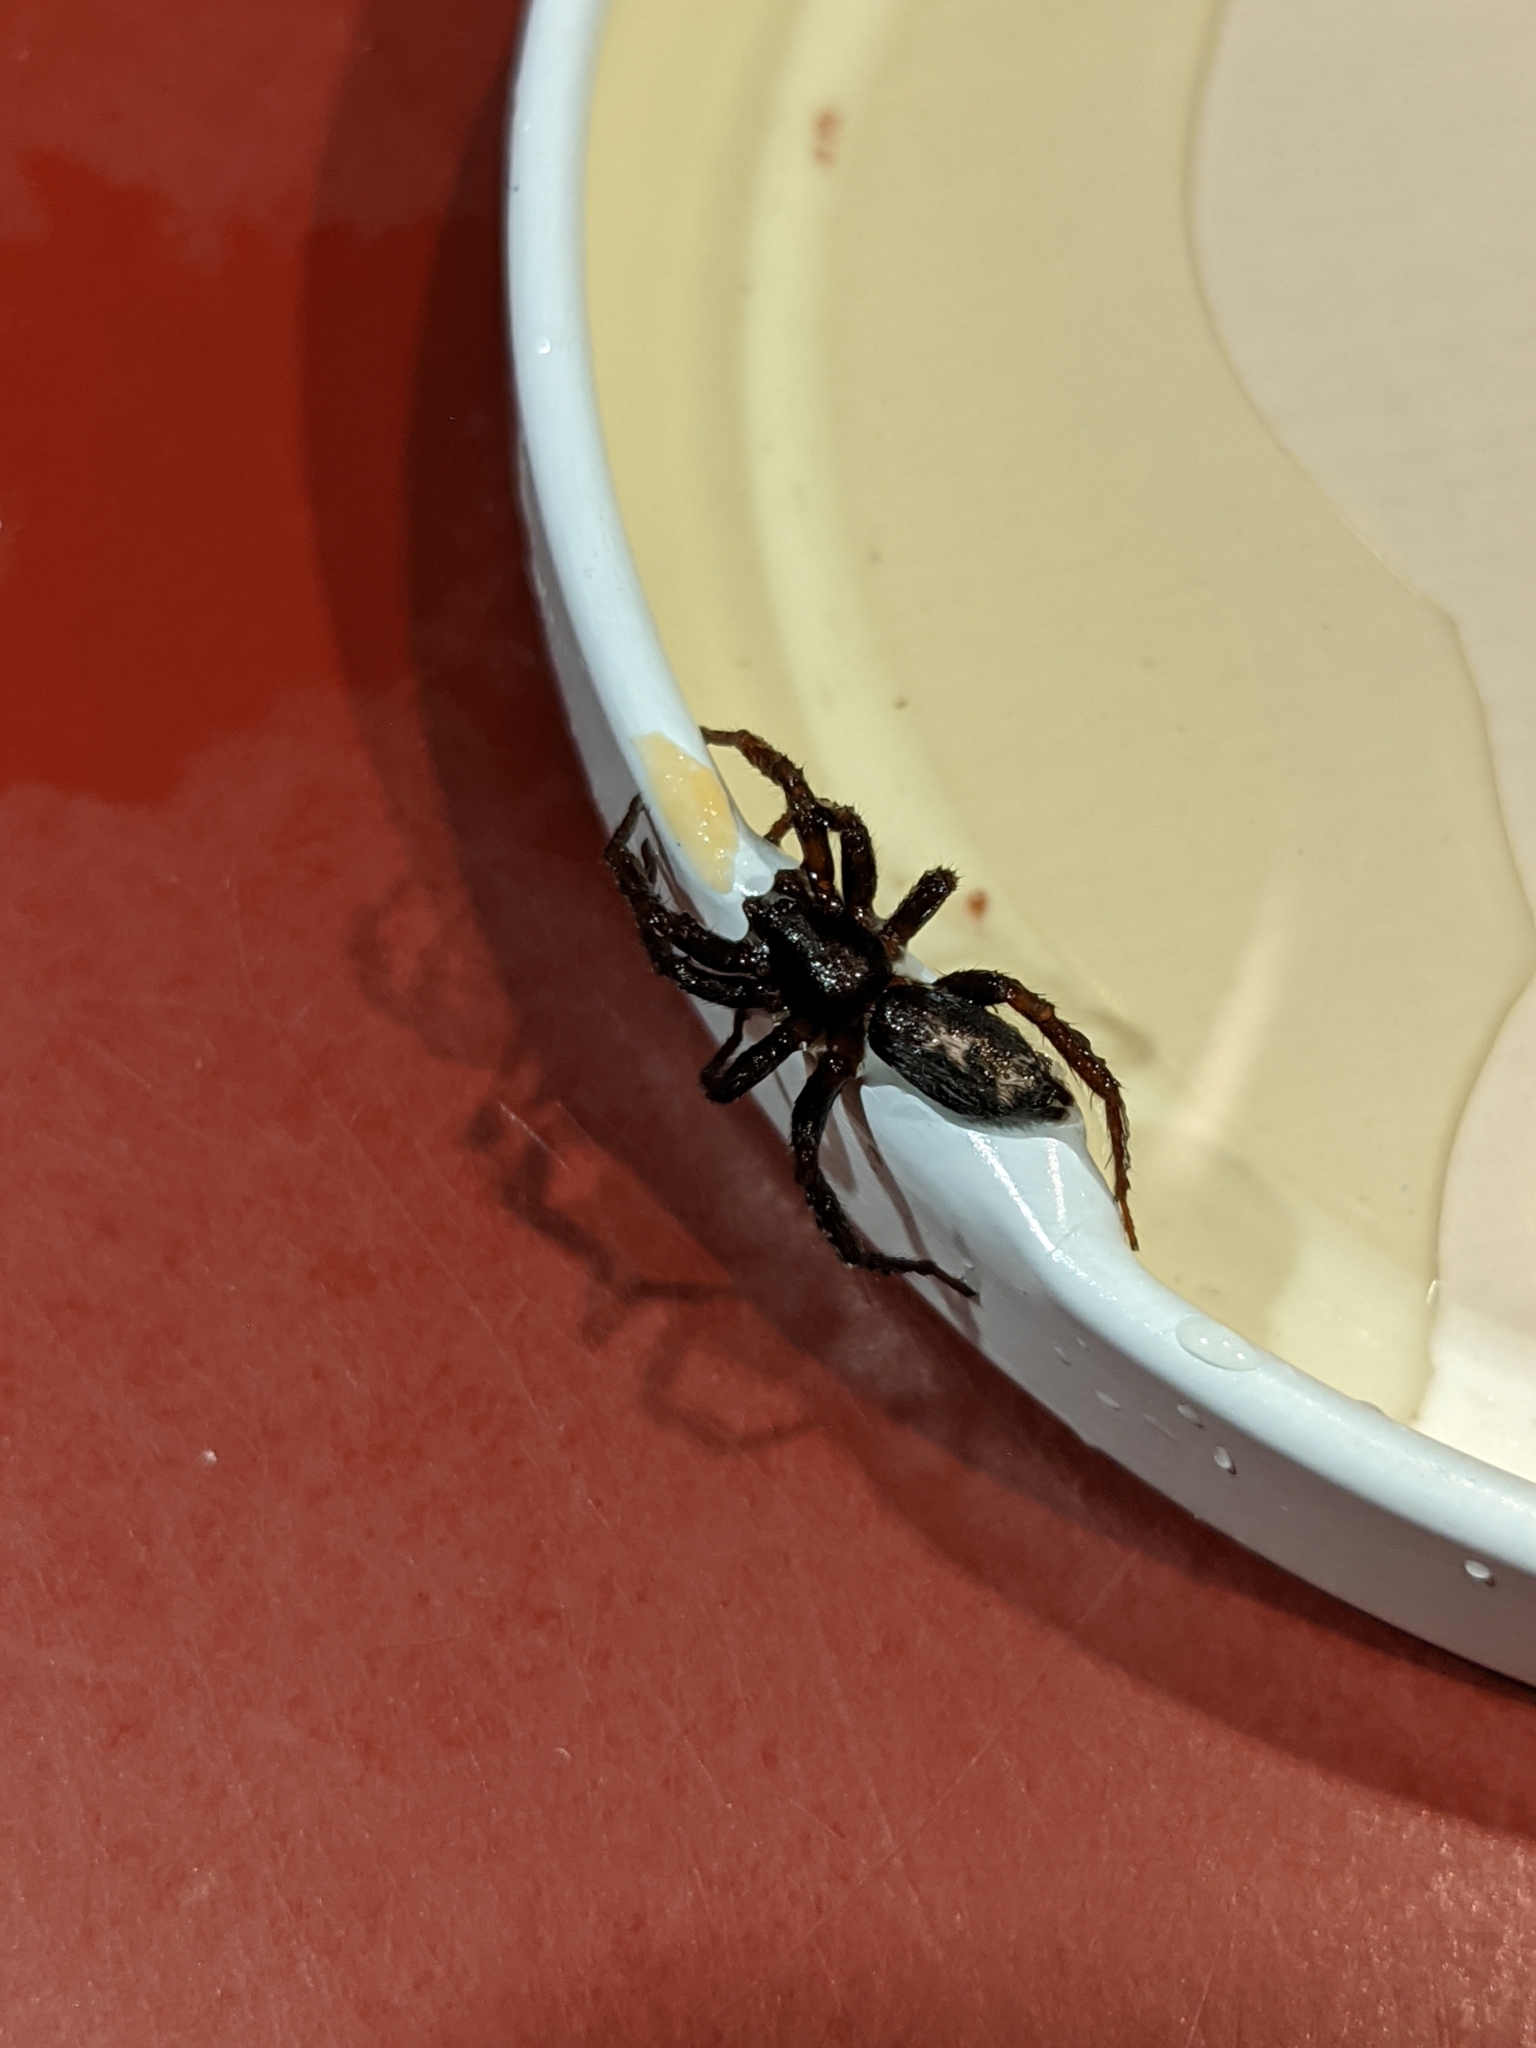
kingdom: Animalia
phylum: Arthropoda
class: Arachnida
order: Araneae
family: Gnaphosidae
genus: Herpyllus
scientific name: Herpyllus ecclesiasticus
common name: Eastern parson spider
